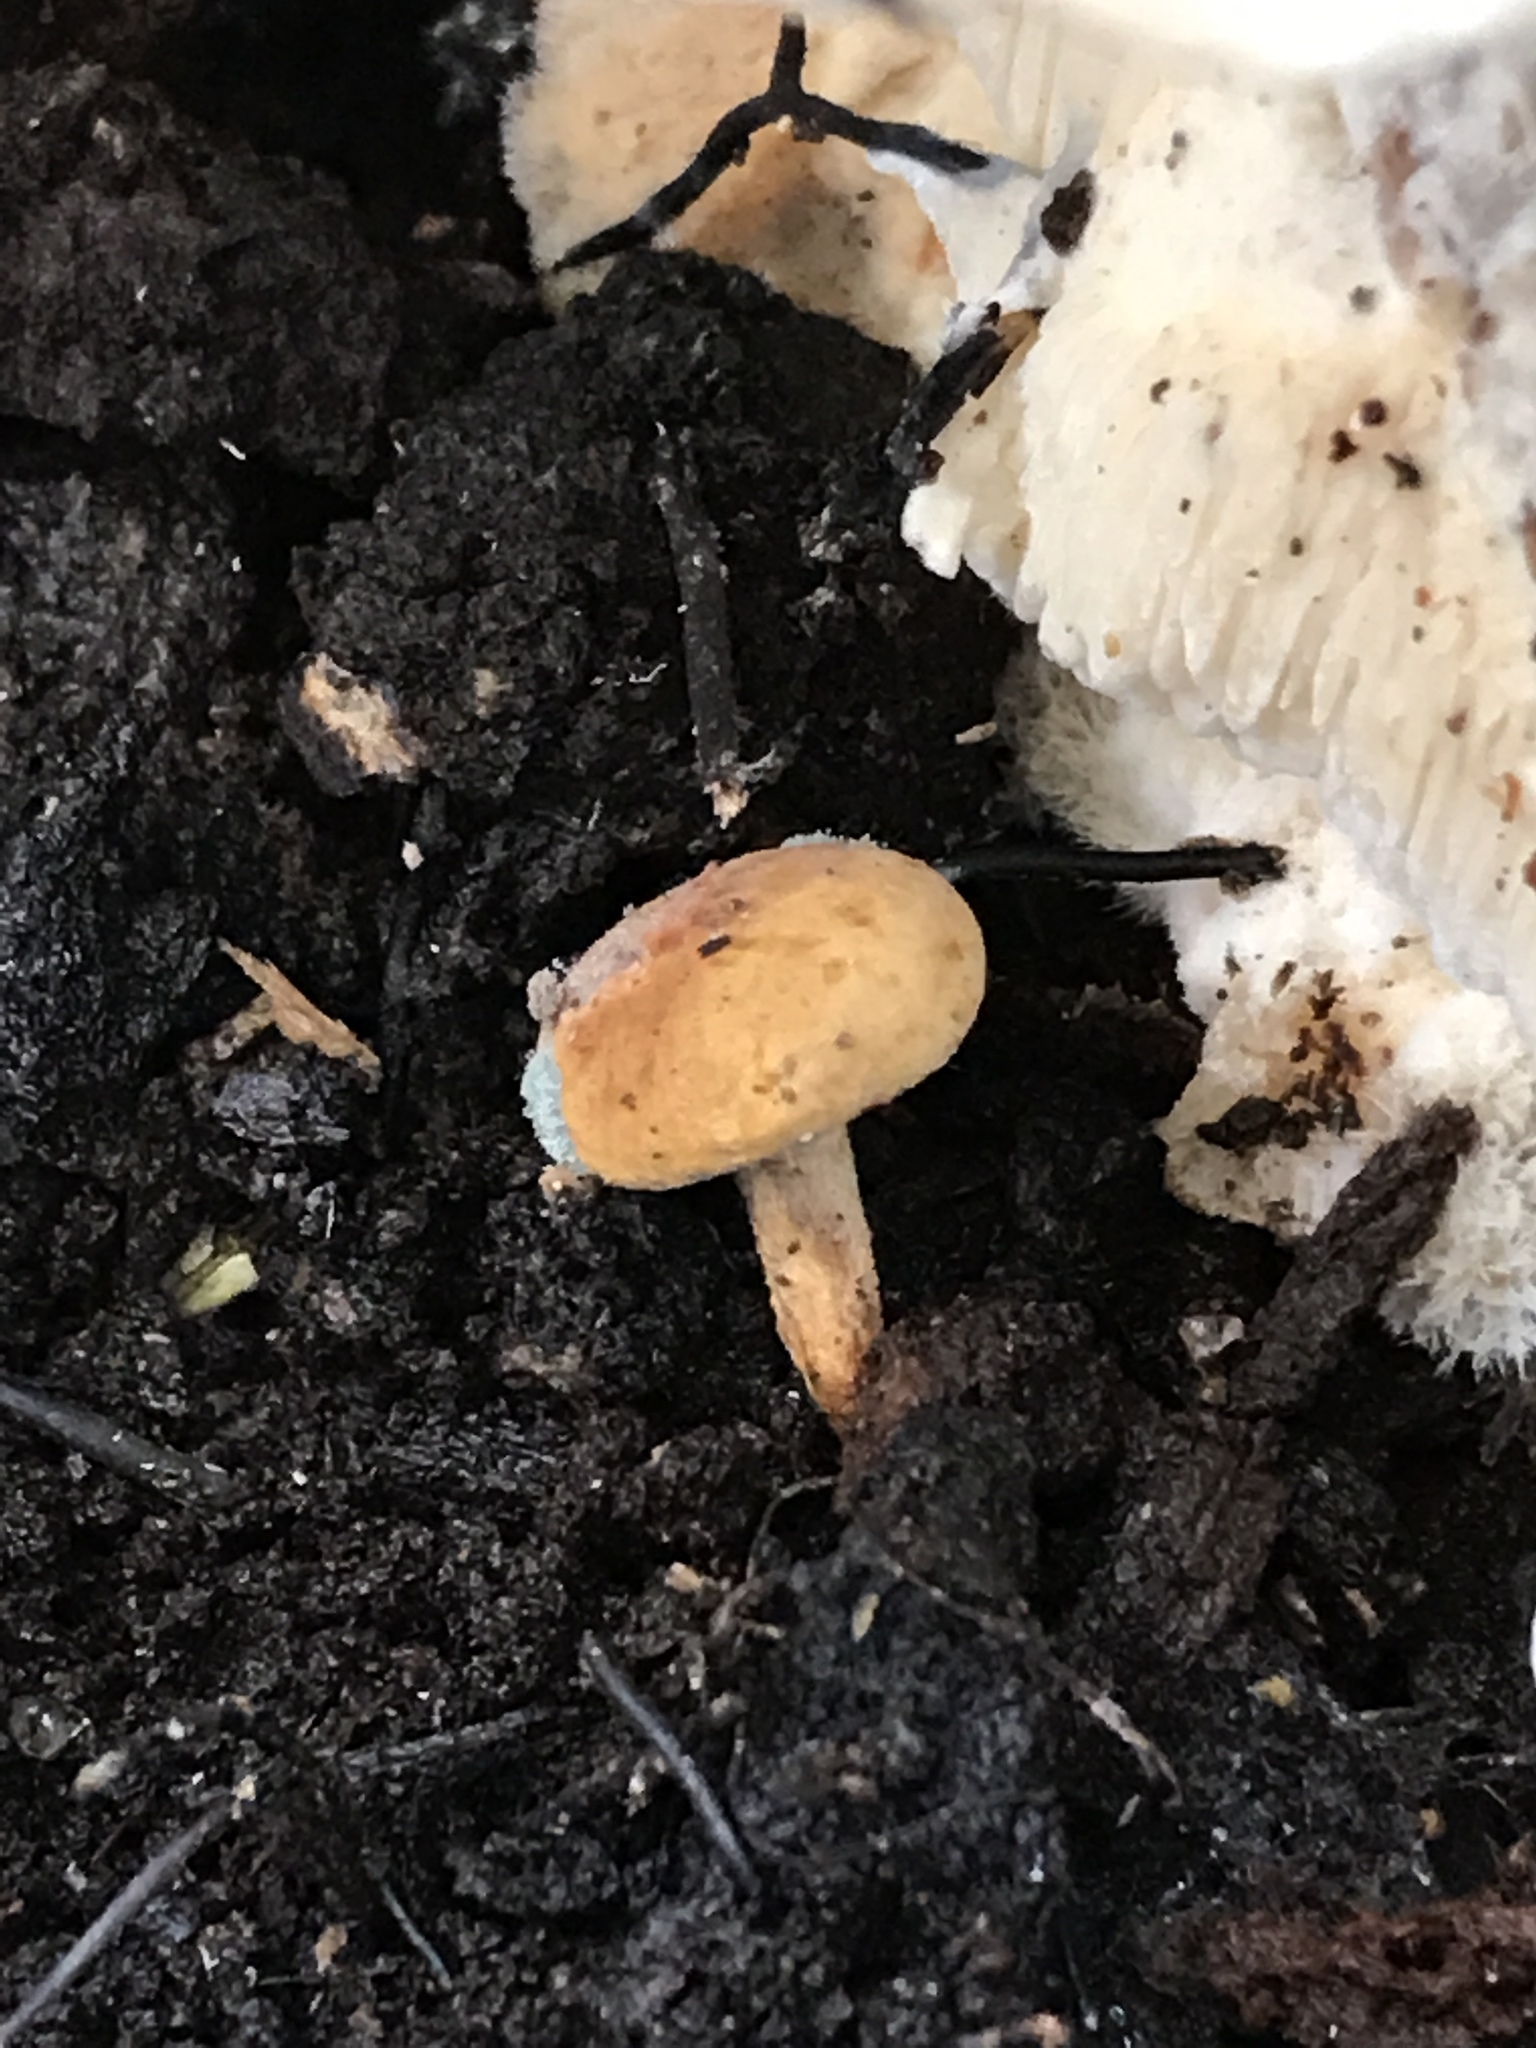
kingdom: Fungi
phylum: Basidiomycota
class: Agaricomycetes
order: Agaricales
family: Strophariaceae
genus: Agrocybe
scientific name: Agrocybe firma
